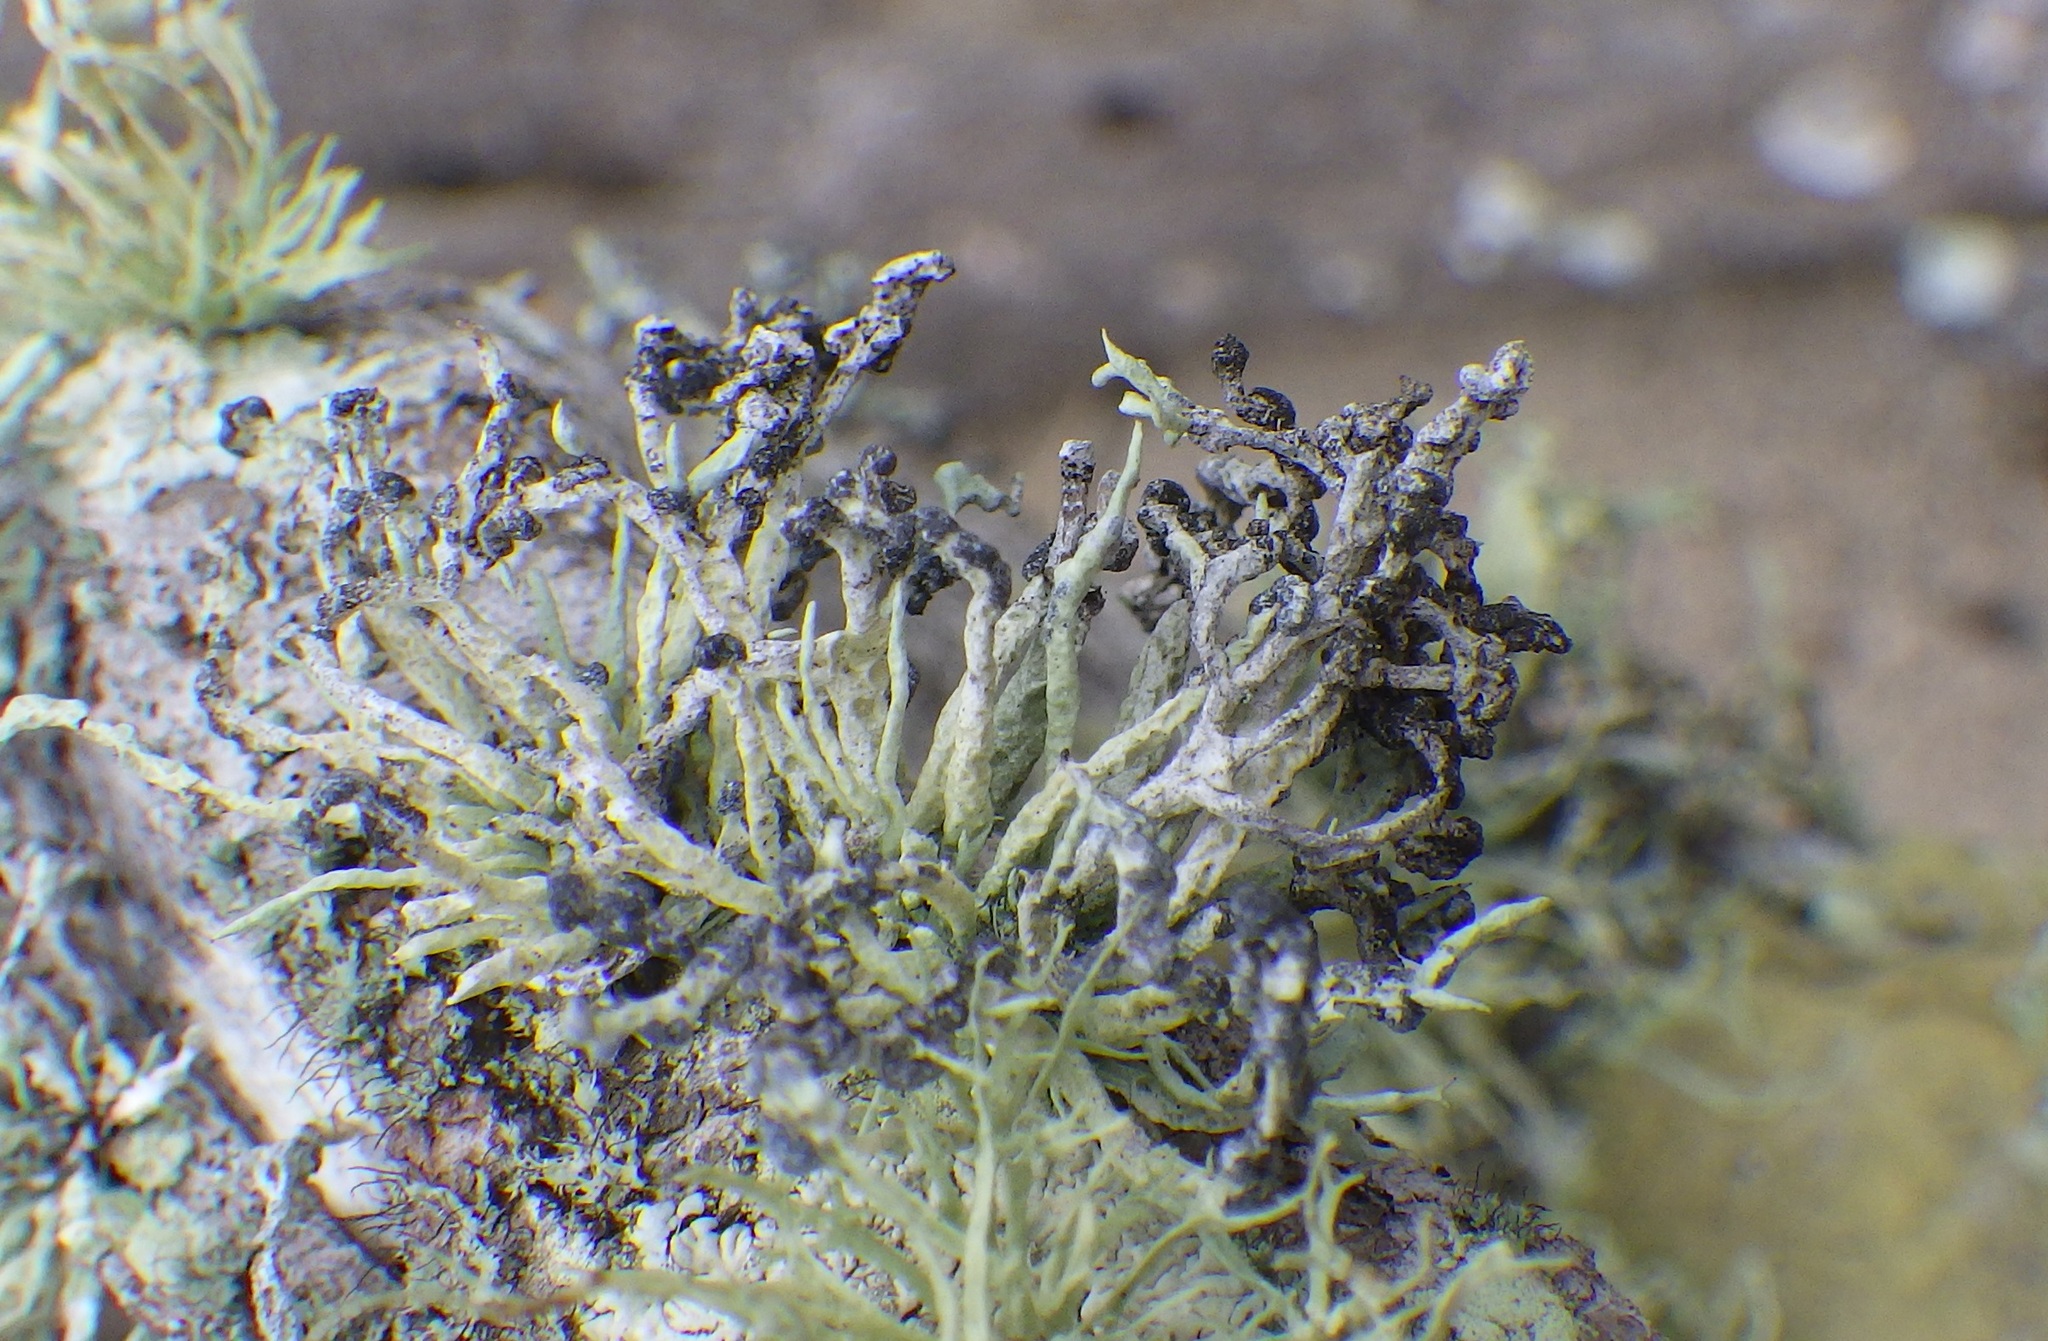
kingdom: Fungi
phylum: Ascomycota
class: Lecanoromycetes
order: Lecanorales
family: Ramalinaceae
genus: Niebla
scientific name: Niebla cephalota
